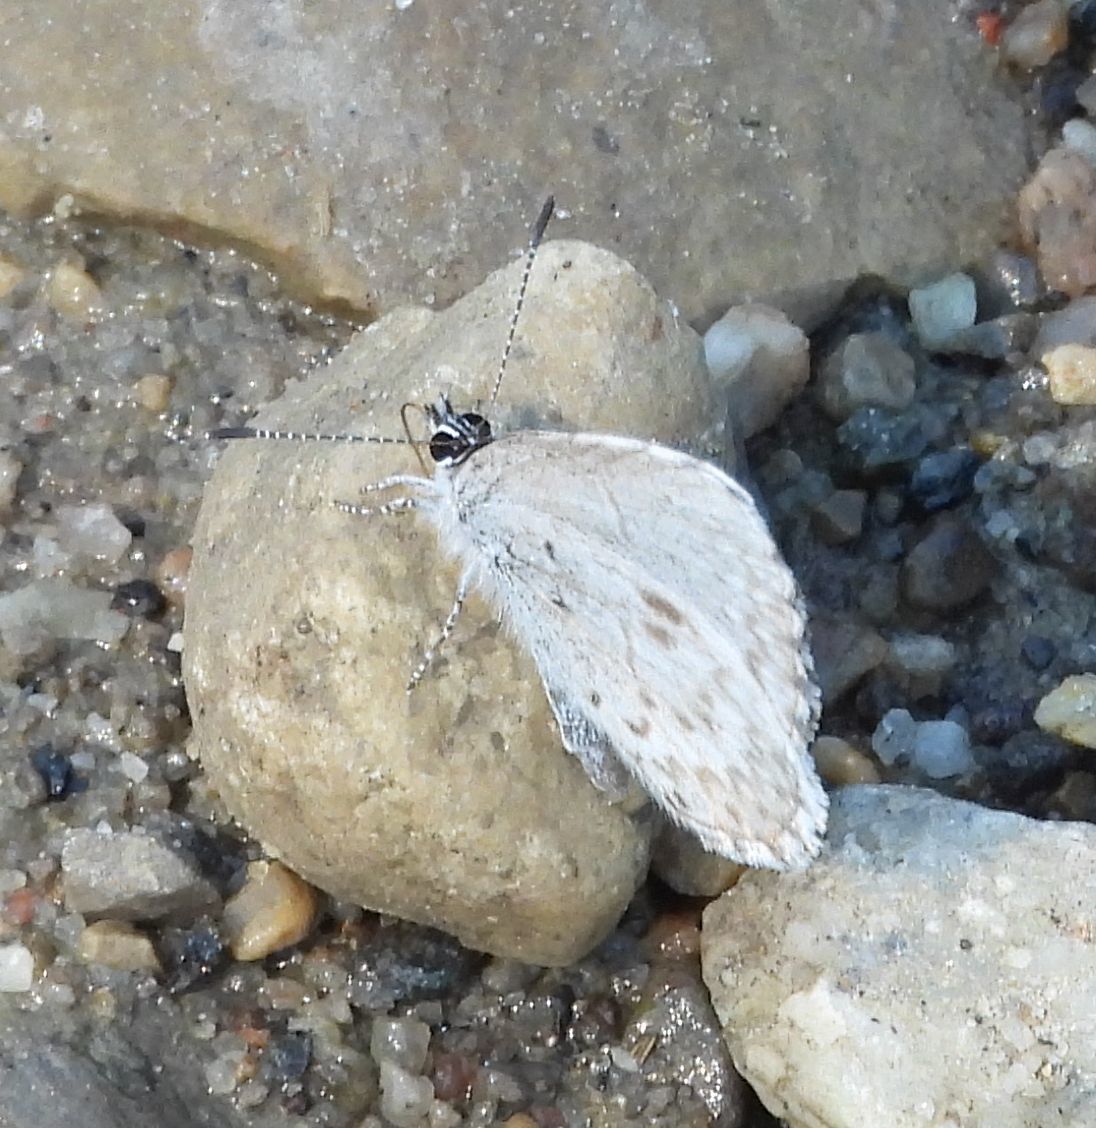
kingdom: Animalia
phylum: Arthropoda
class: Insecta
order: Lepidoptera
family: Lycaenidae
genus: Celastrina
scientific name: Celastrina lucia
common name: Lucia azure
